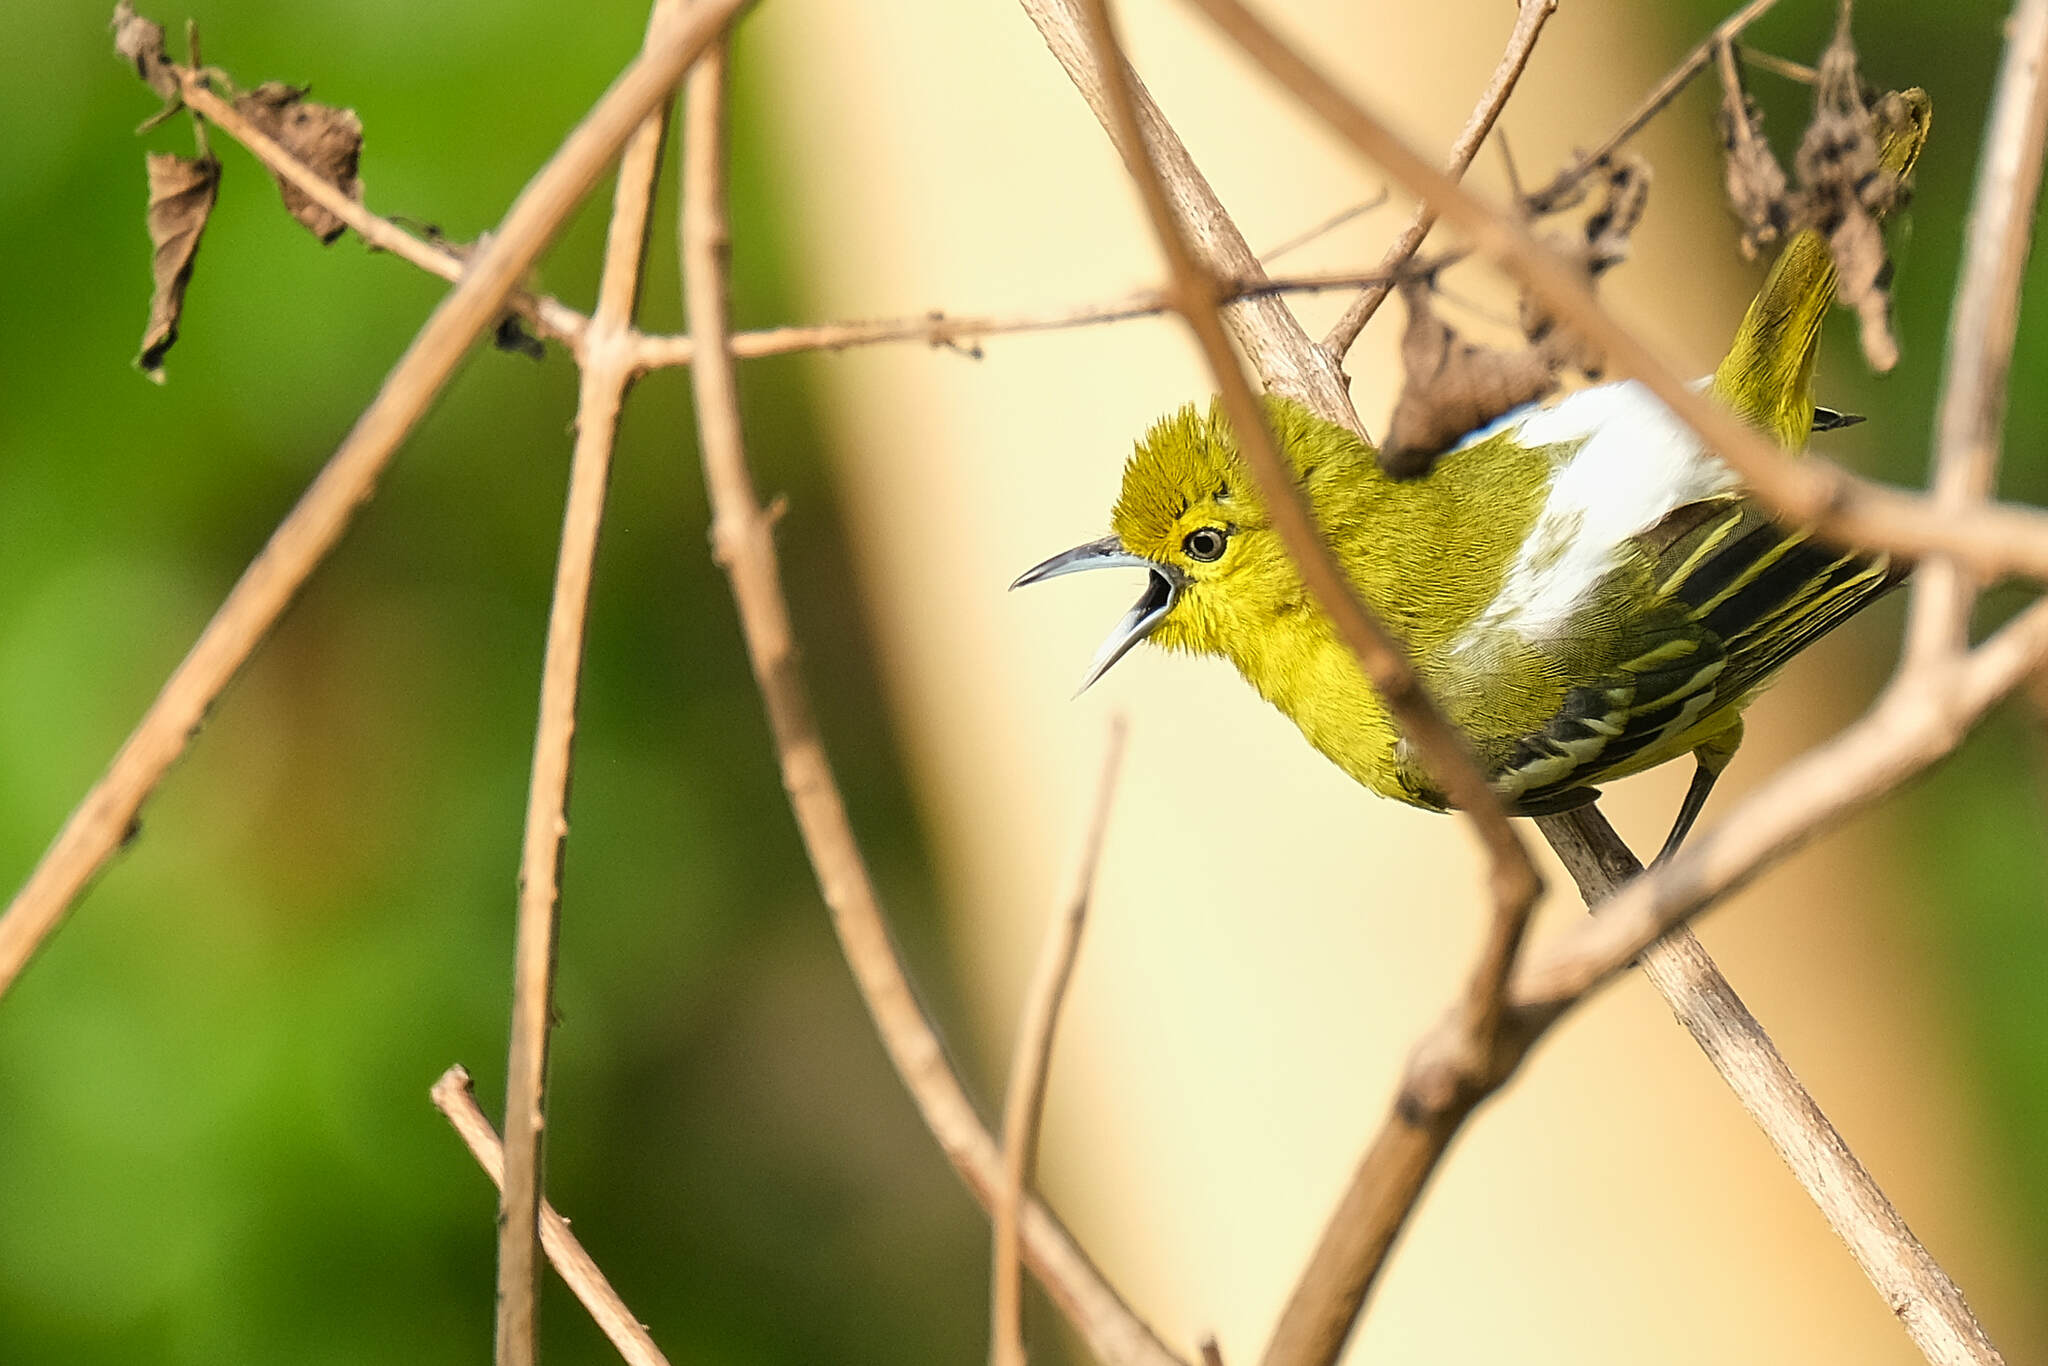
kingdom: Animalia
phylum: Chordata
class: Aves
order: Passeriformes
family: Aegithinidae
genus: Aegithina
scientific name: Aegithina tiphia
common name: Common iora
